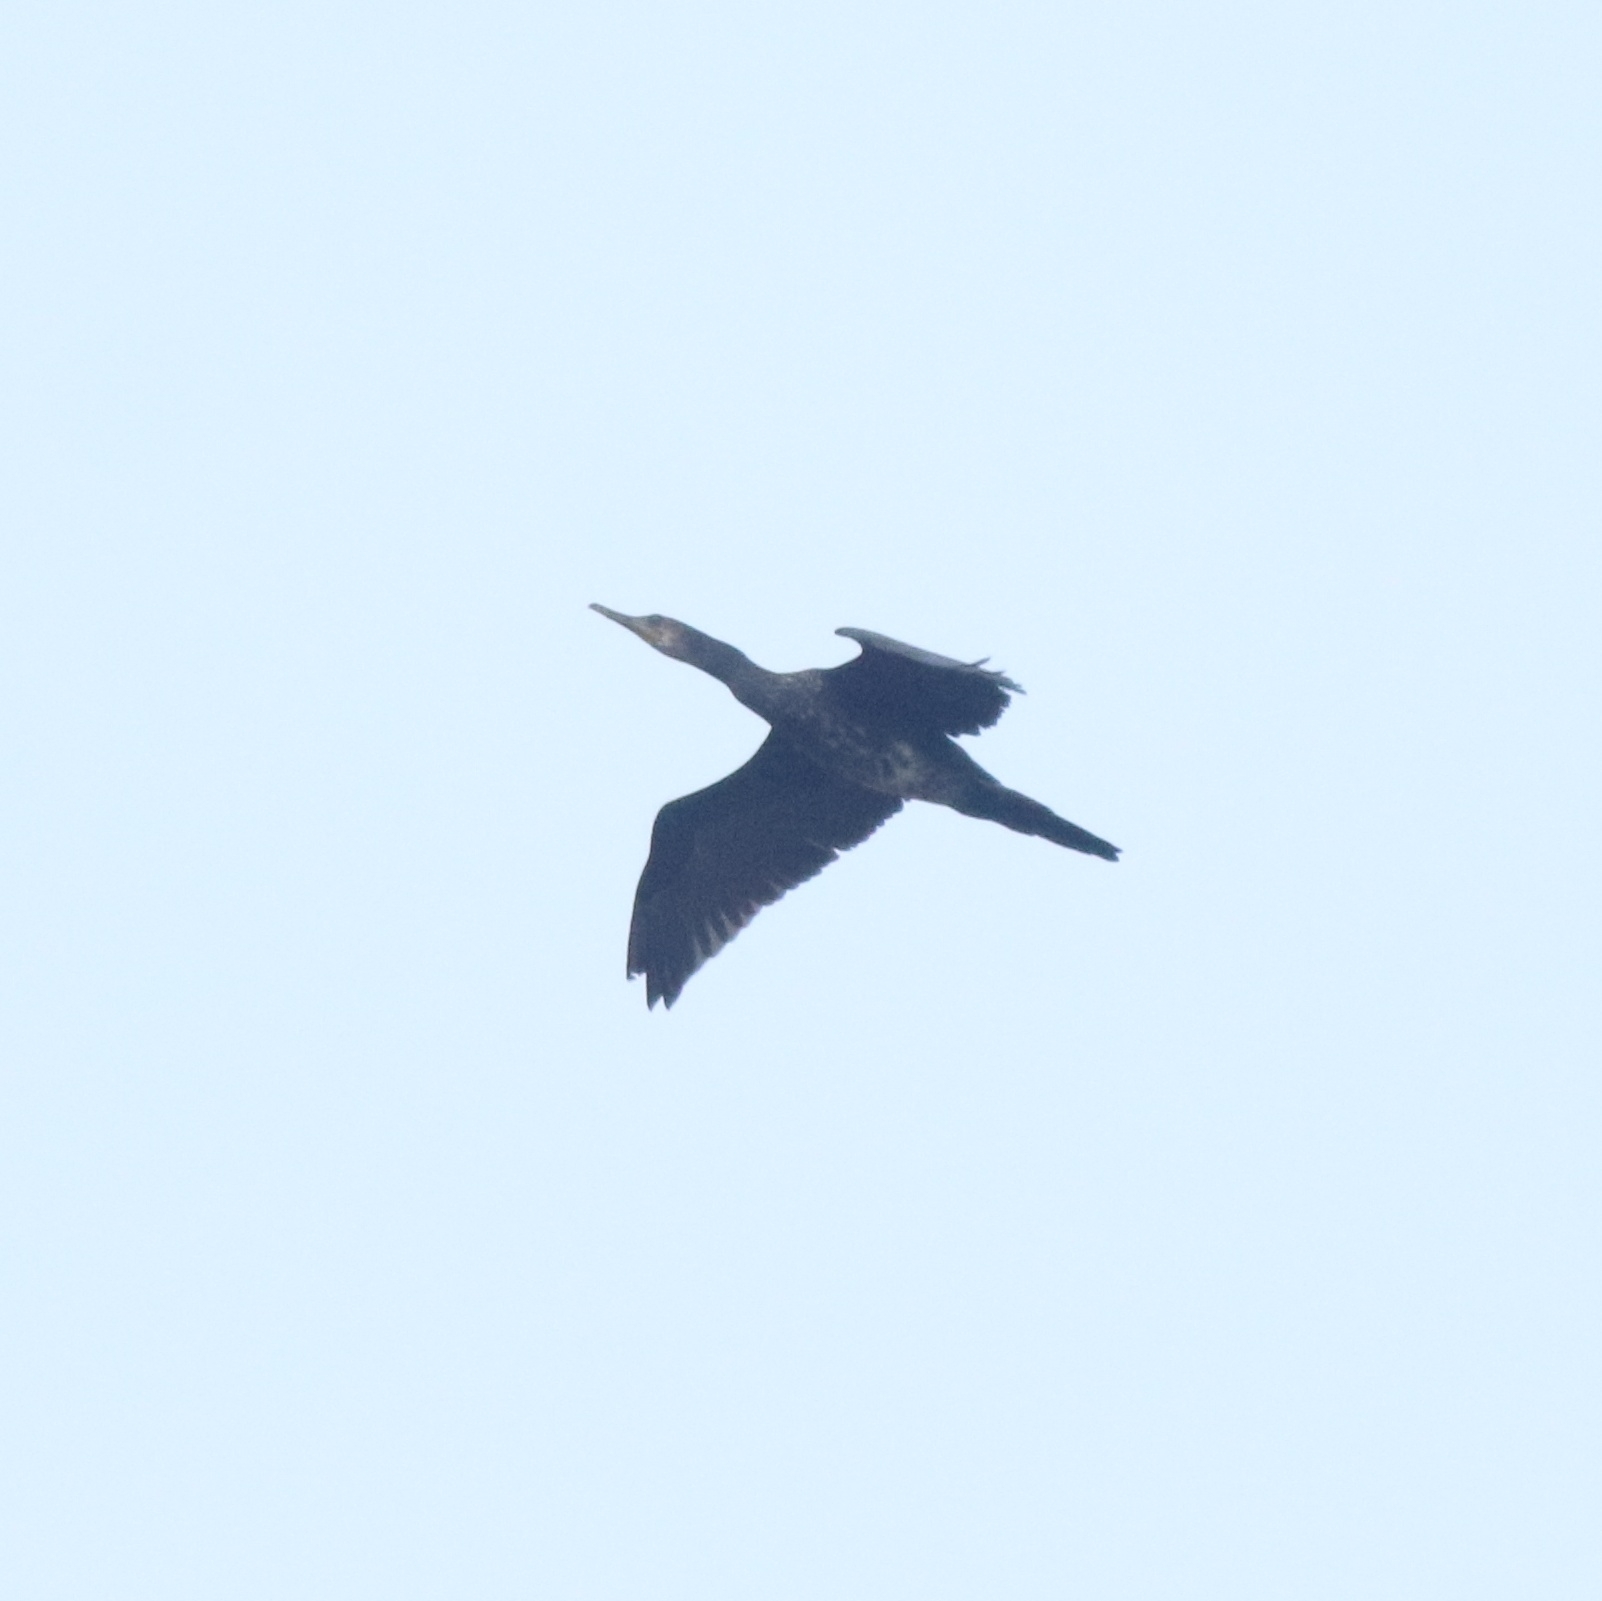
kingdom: Animalia
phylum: Chordata
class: Aves
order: Suliformes
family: Phalacrocoracidae
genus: Phalacrocorax
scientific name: Phalacrocorax fuscicollis
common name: Indian cormorant
